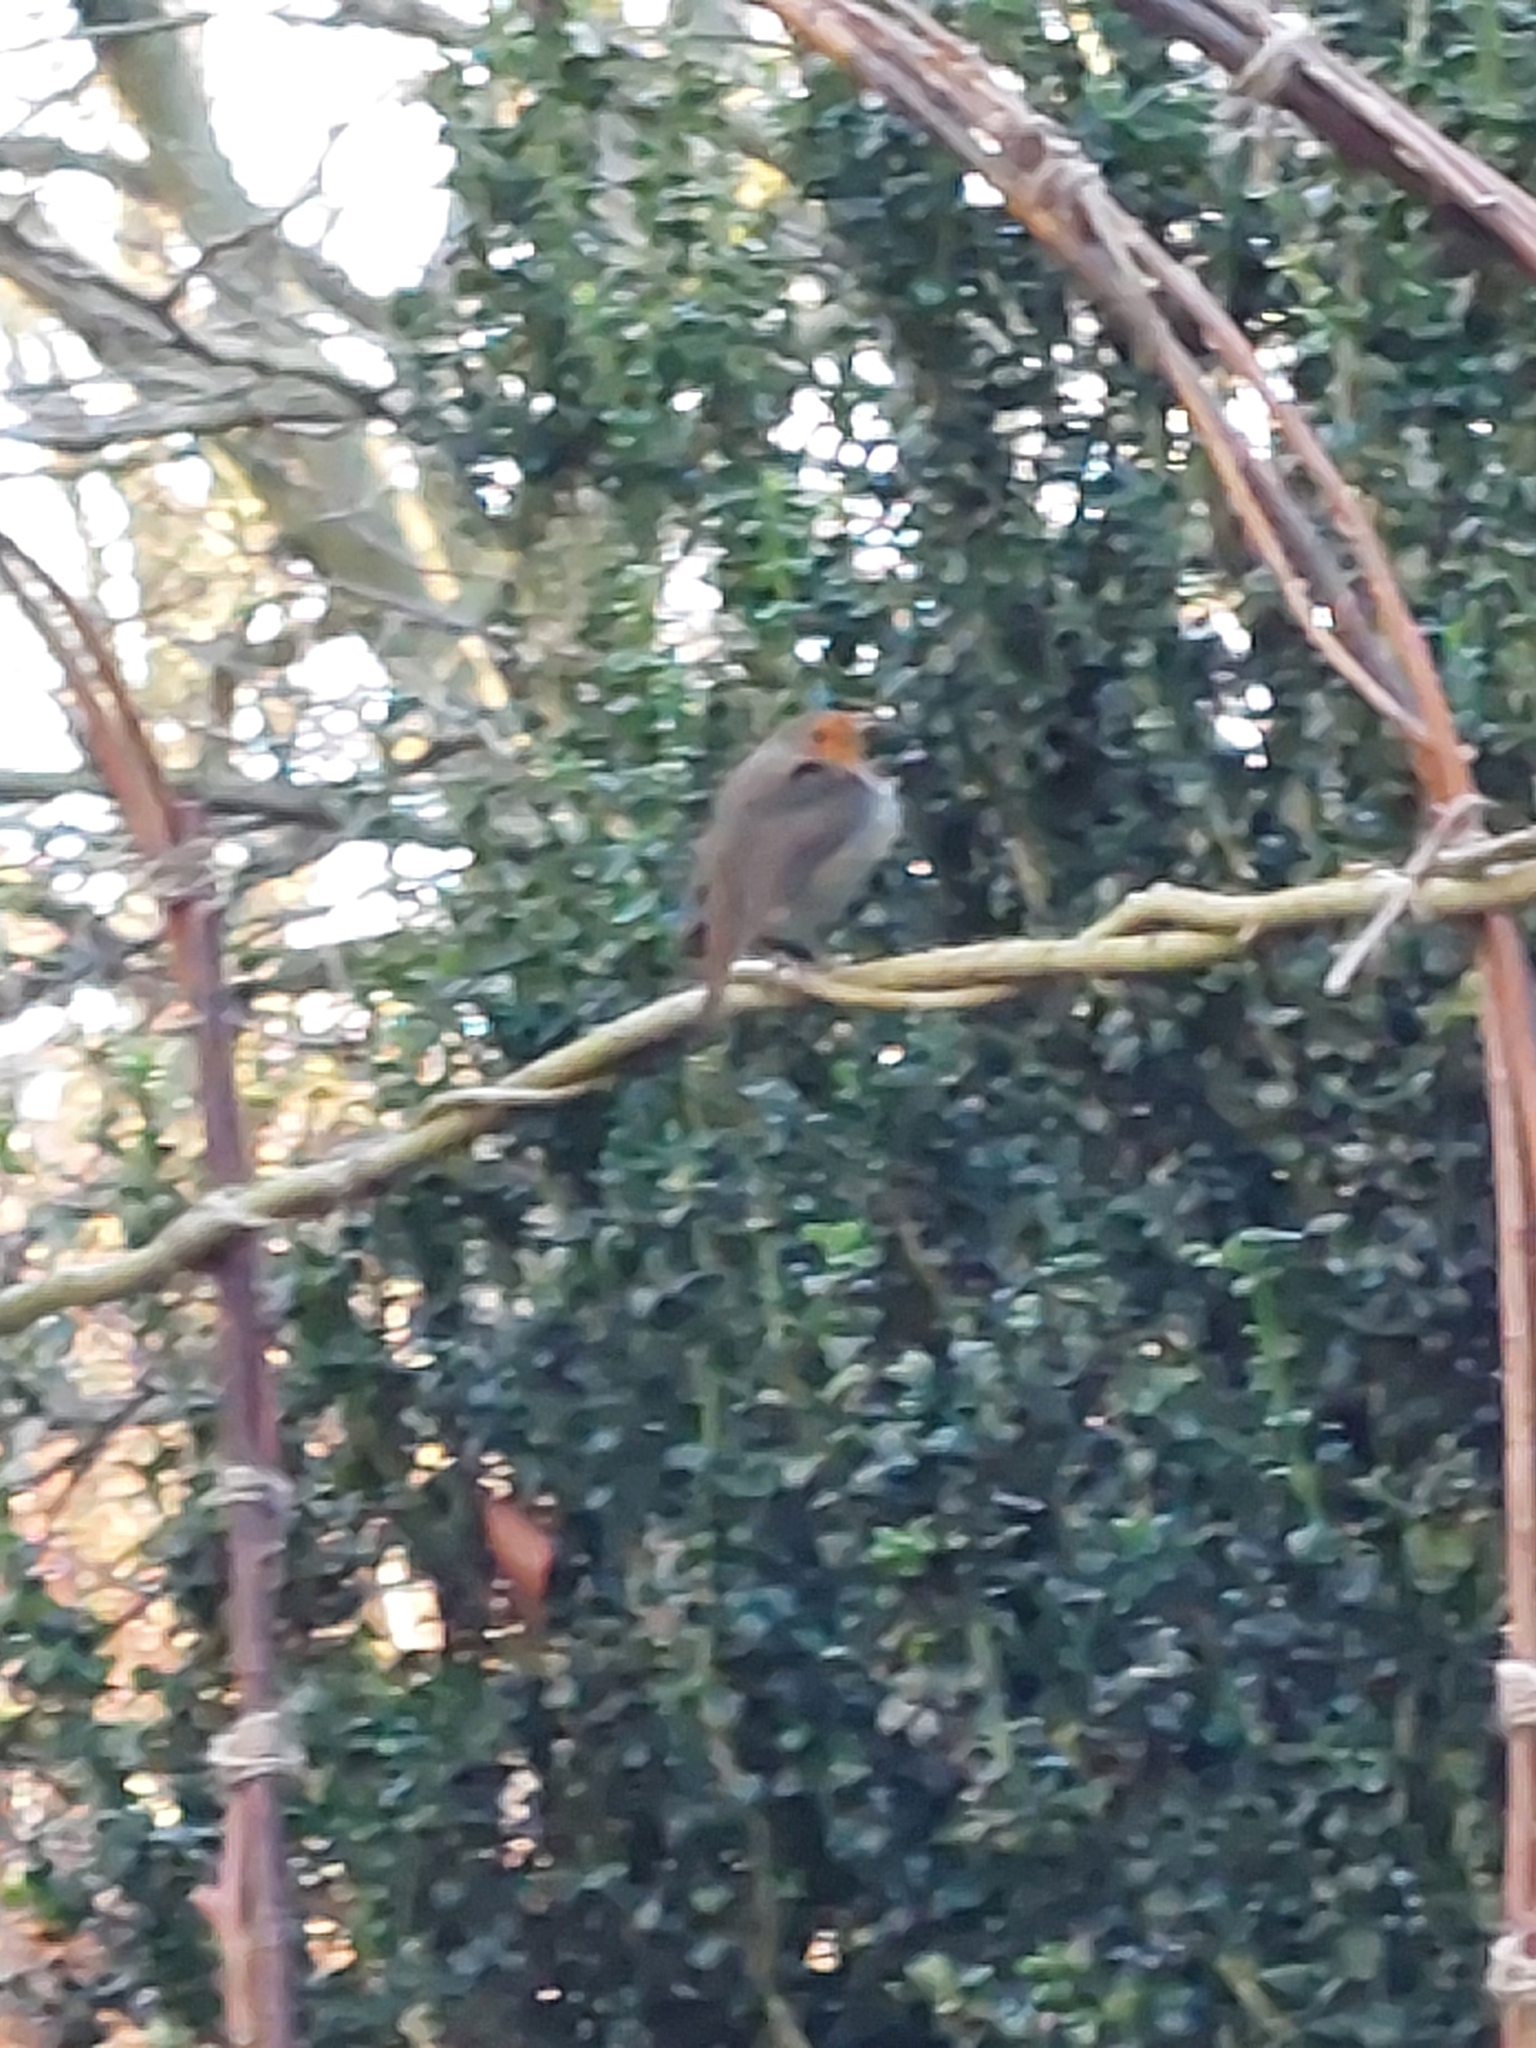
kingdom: Animalia
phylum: Chordata
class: Aves
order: Passeriformes
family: Muscicapidae
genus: Erithacus
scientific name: Erithacus rubecula
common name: European robin
